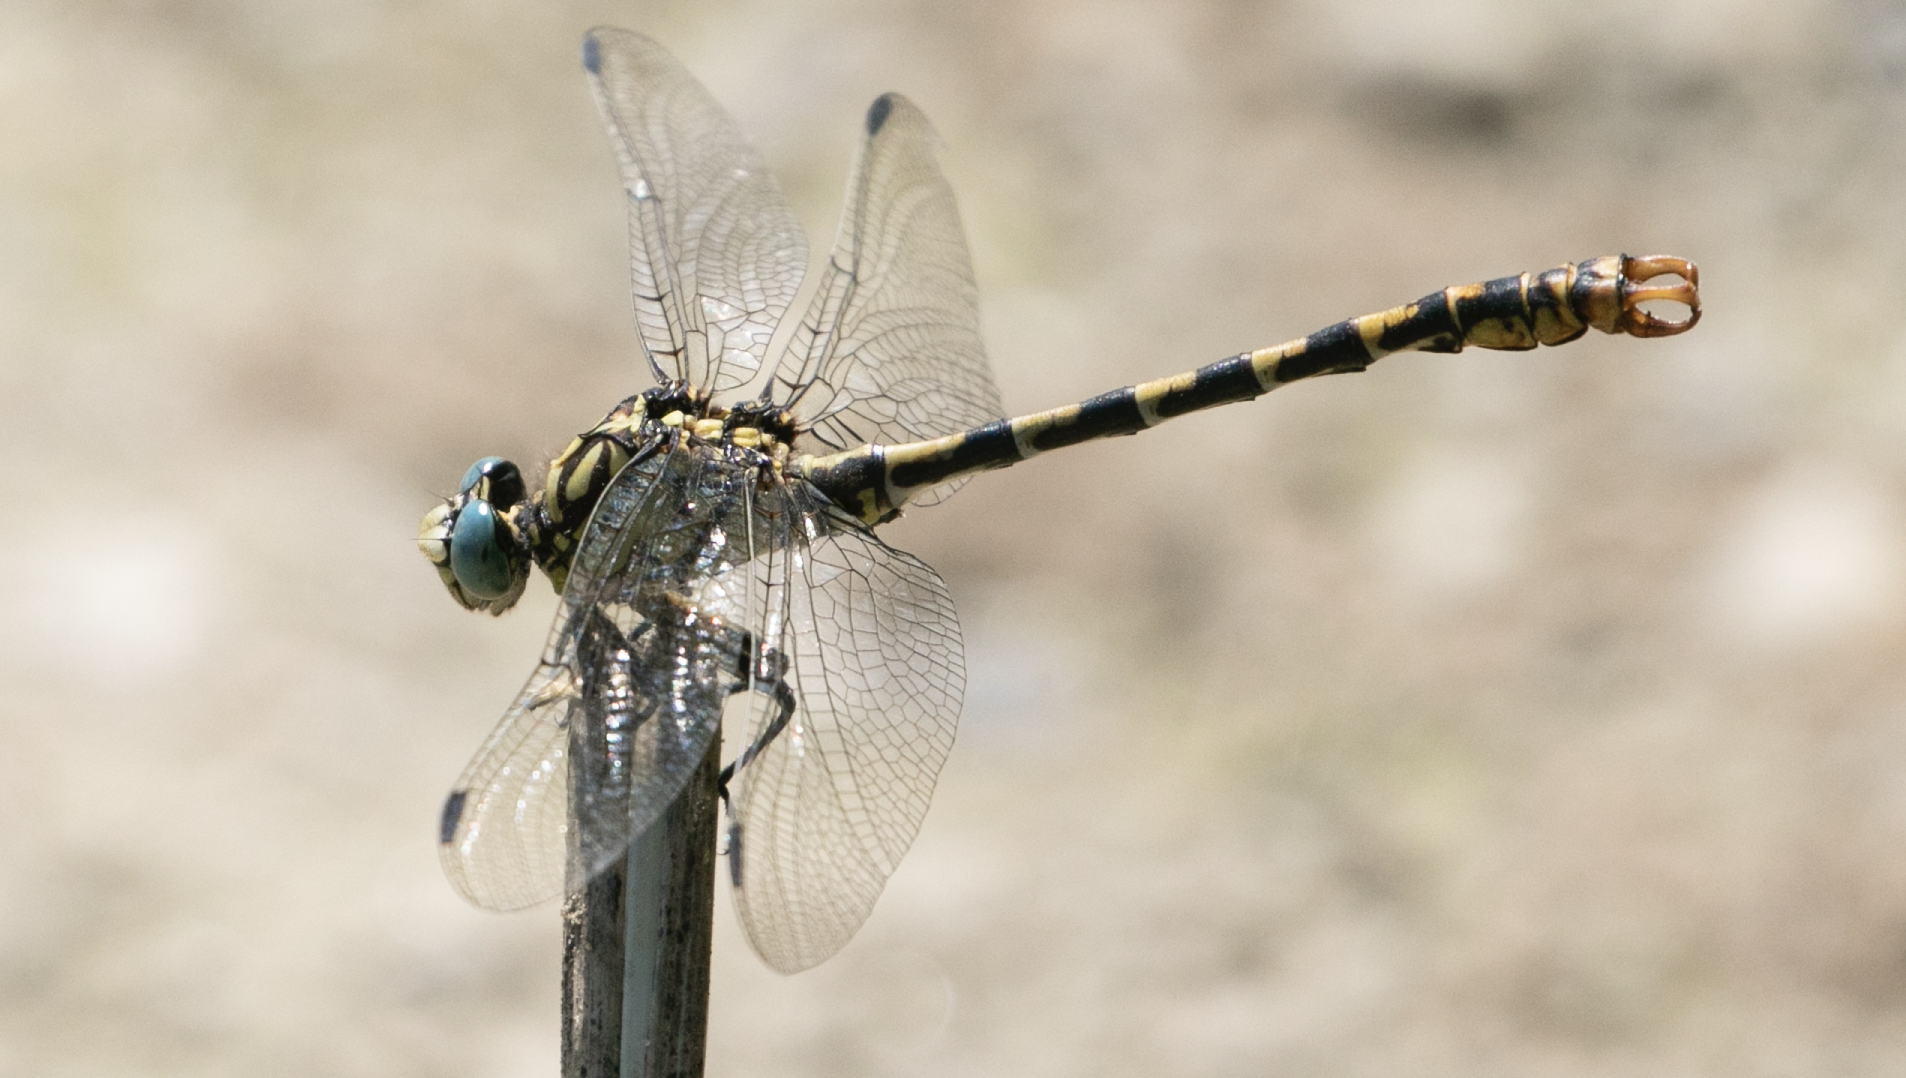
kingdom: Animalia
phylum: Arthropoda
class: Insecta
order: Odonata
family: Gomphidae
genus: Onychogomphus
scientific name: Onychogomphus forcipatus
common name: Small pincertail
